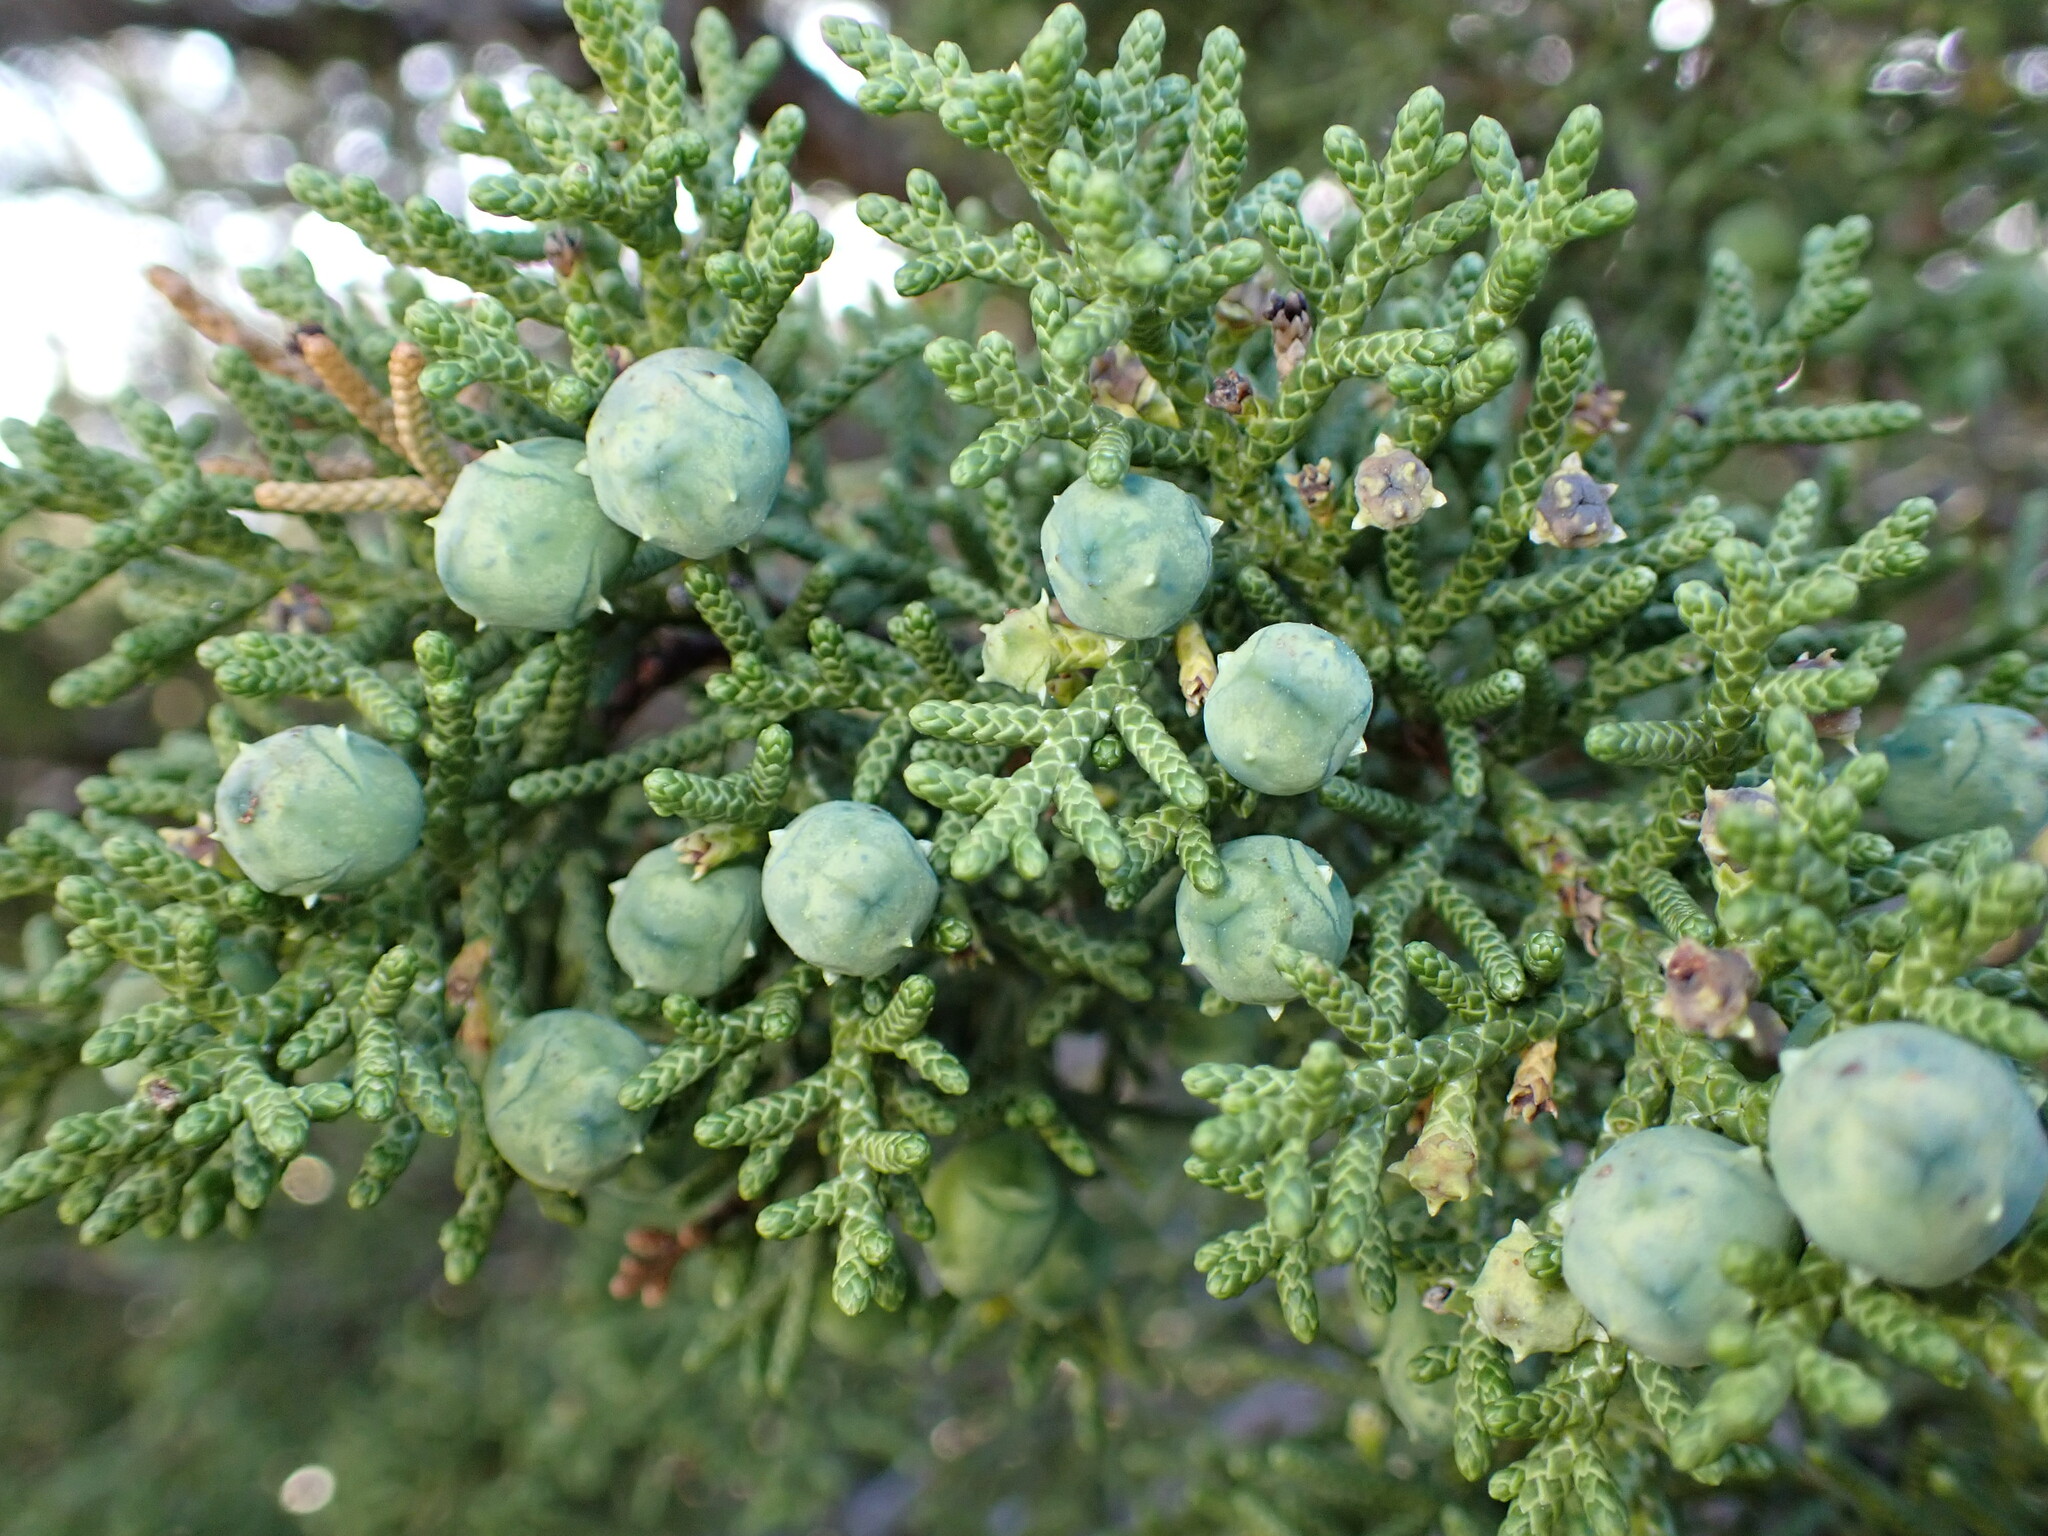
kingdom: Plantae
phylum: Tracheophyta
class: Pinopsida
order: Pinales
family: Cupressaceae
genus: Juniperus
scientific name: Juniperus californica
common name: California juniper
